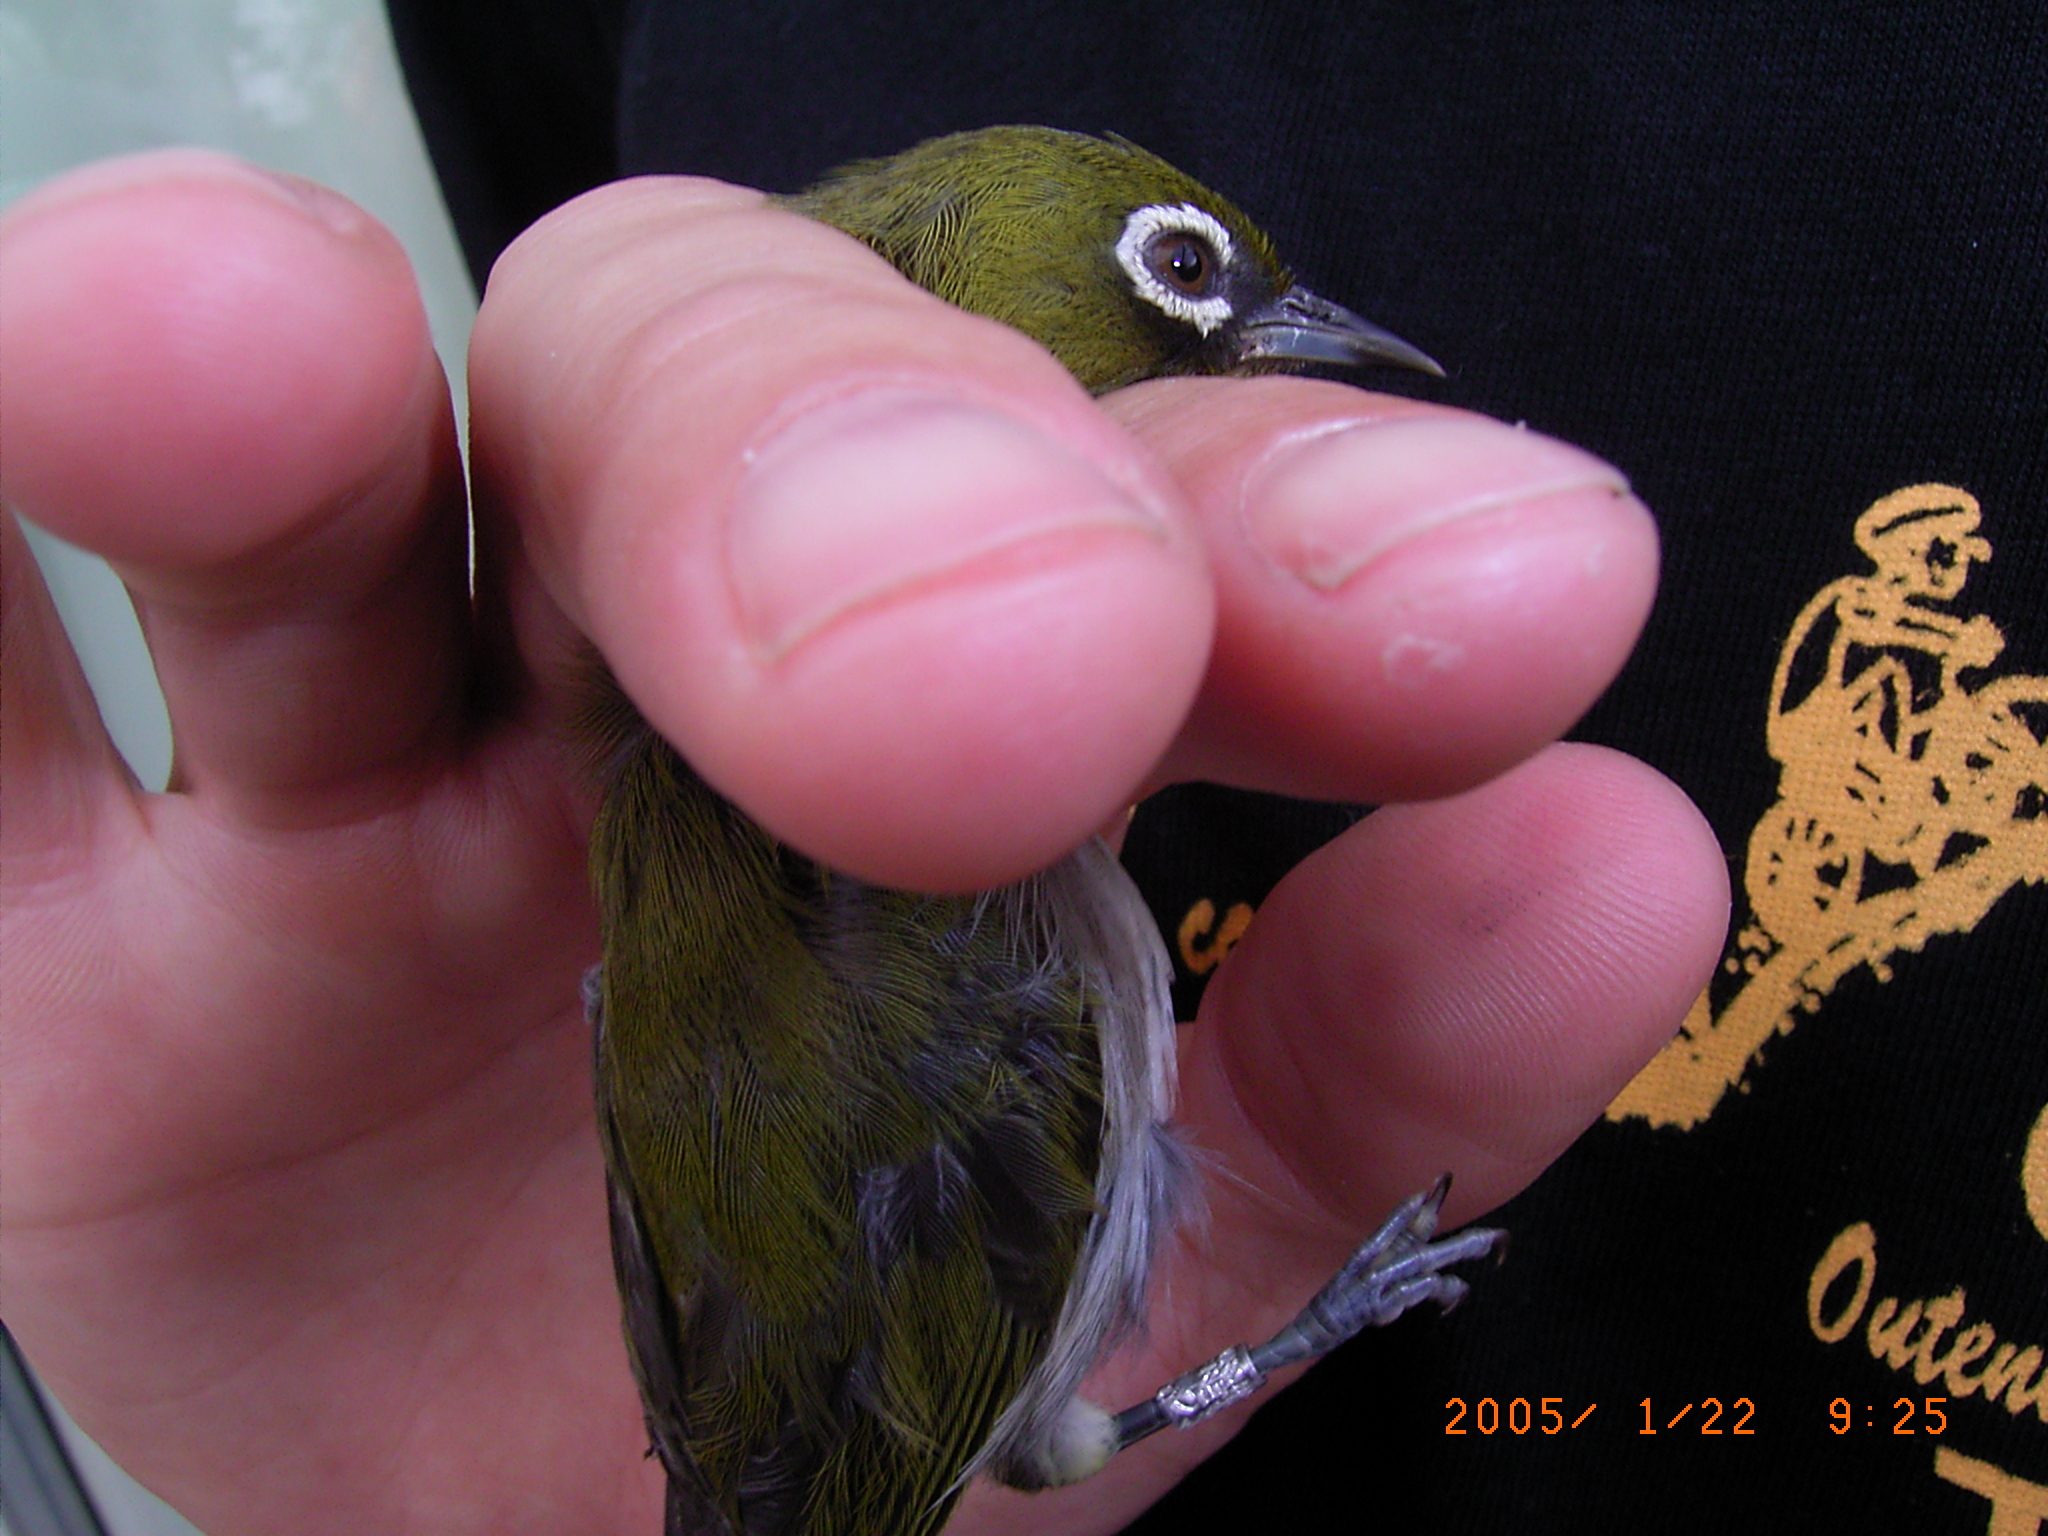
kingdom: Animalia
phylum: Chordata
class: Aves
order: Passeriformes
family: Zosteropidae
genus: Zosterops
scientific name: Zosterops virens
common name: Cape white-eye
